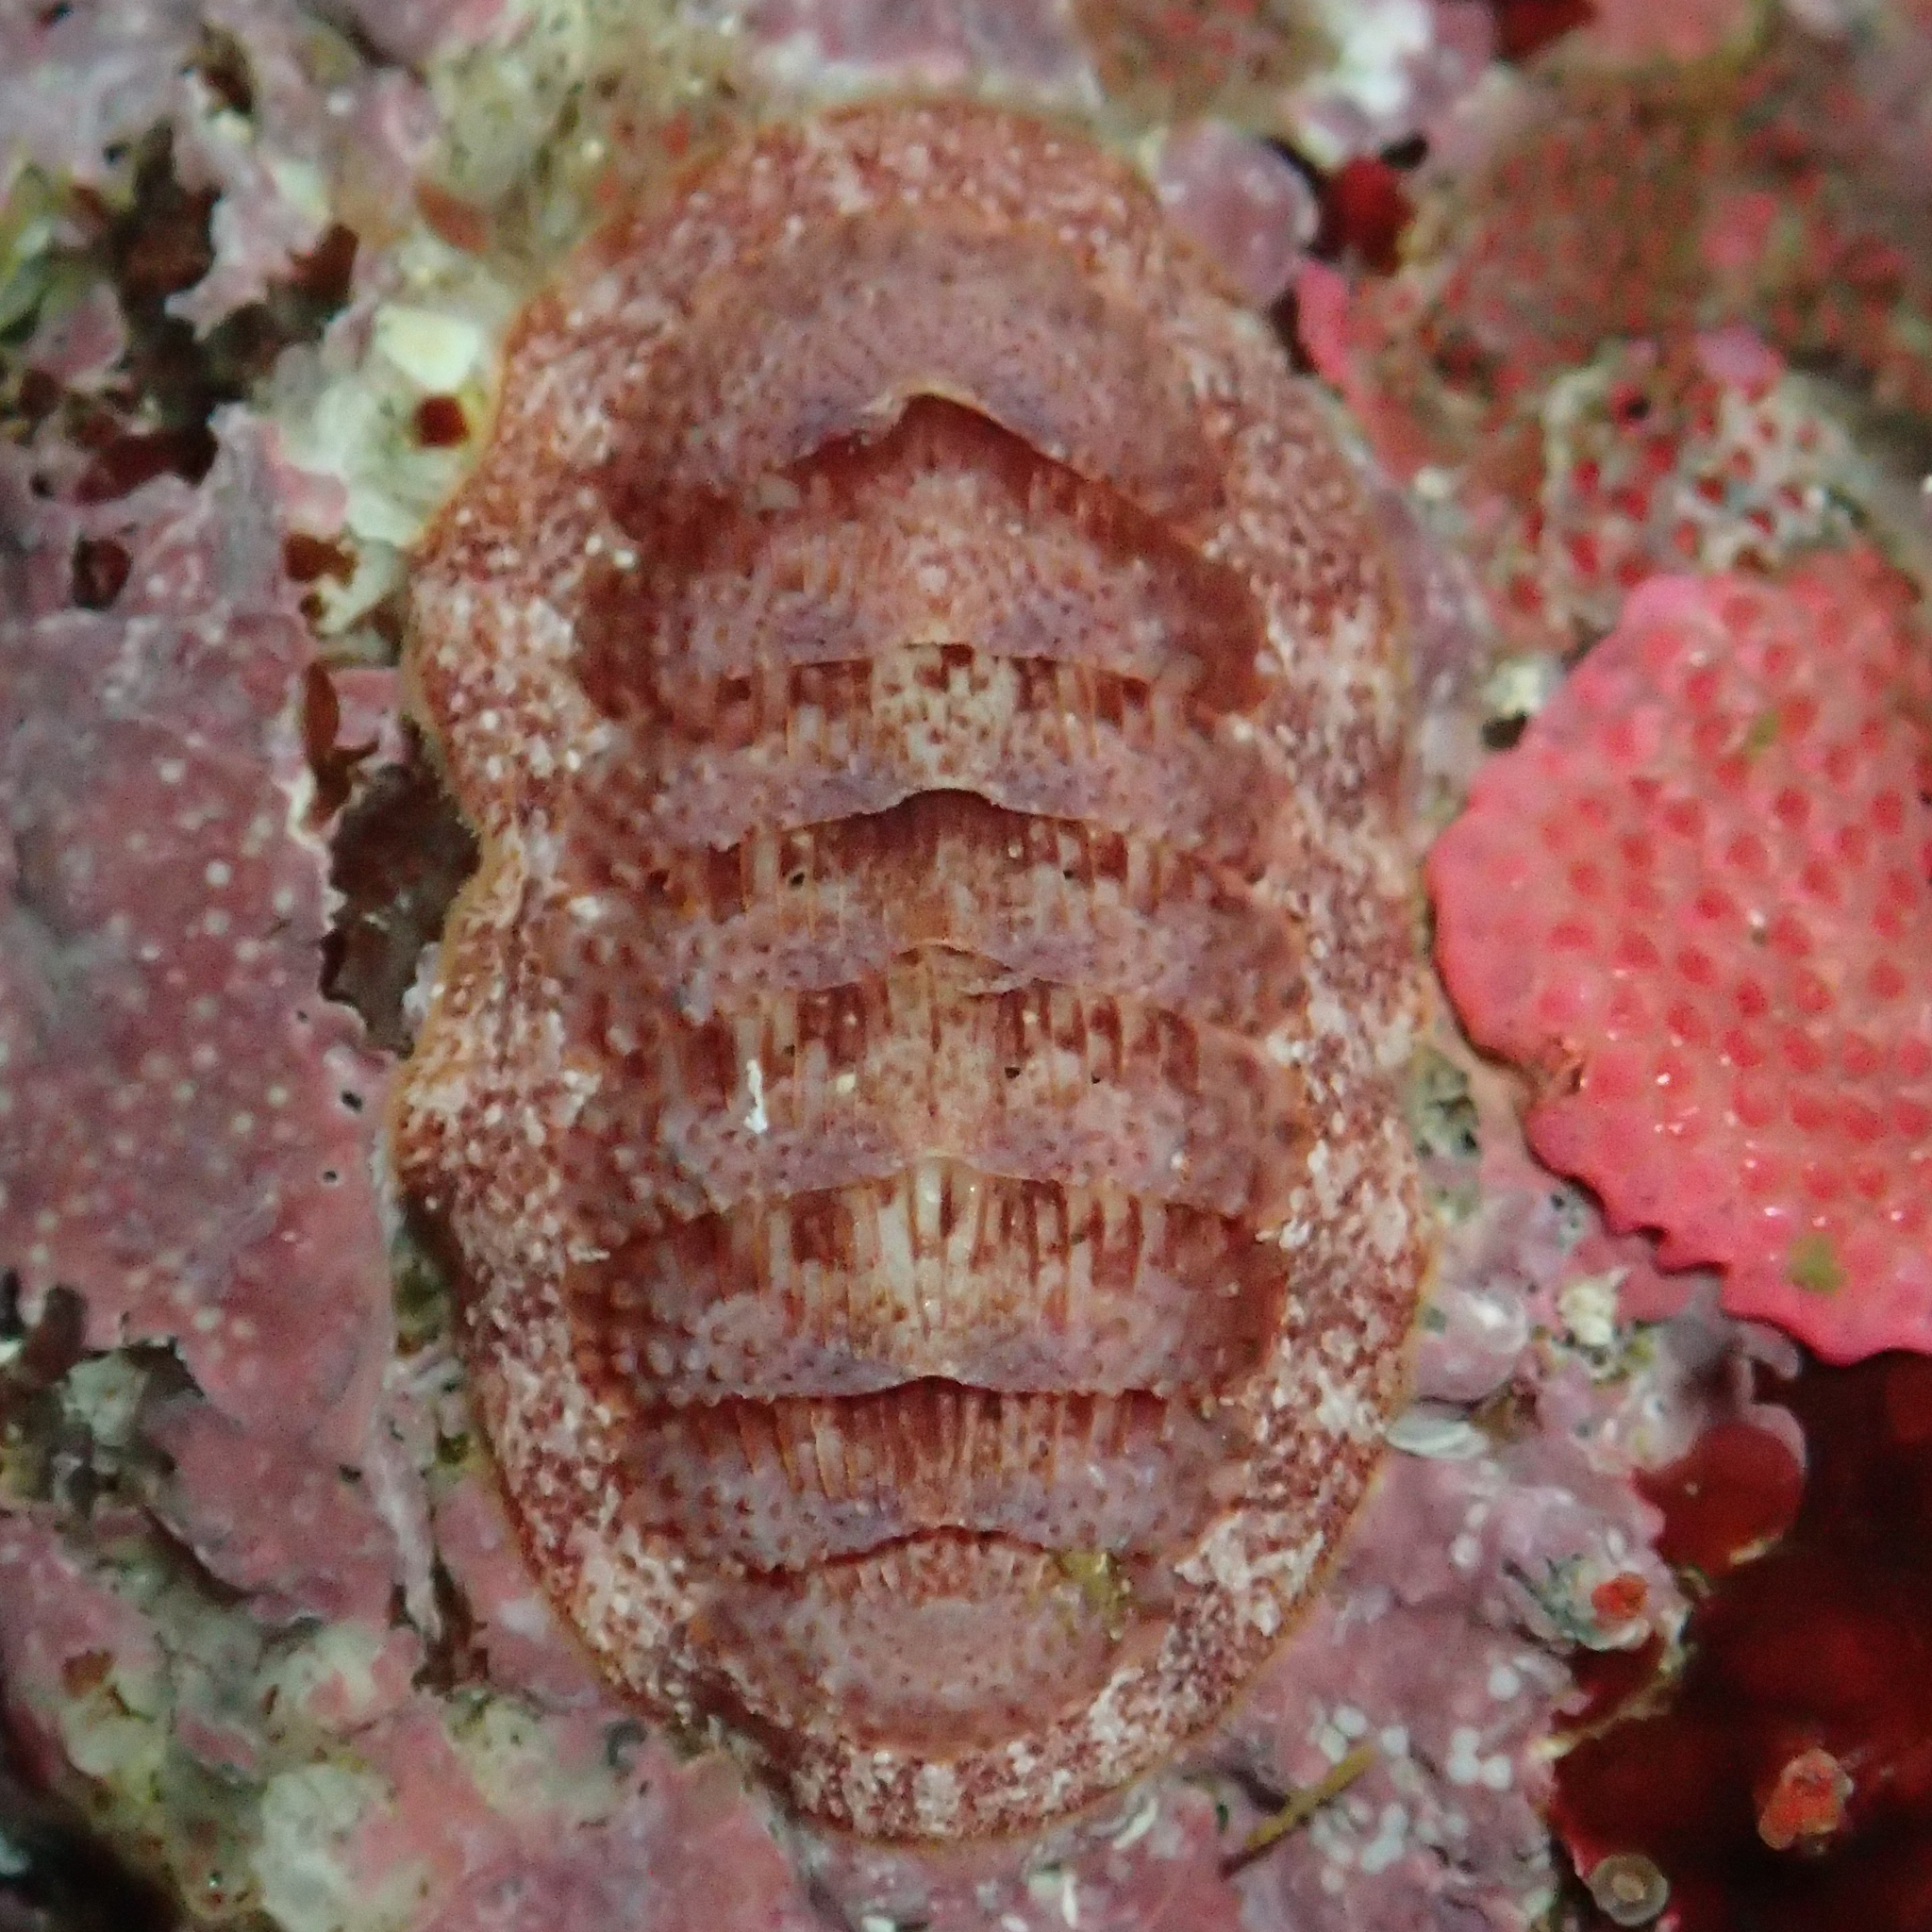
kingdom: Animalia
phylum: Mollusca
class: Polyplacophora
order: Chitonida
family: Ischnochitonidae
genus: Lepidozona
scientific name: Lepidozona mertensii
